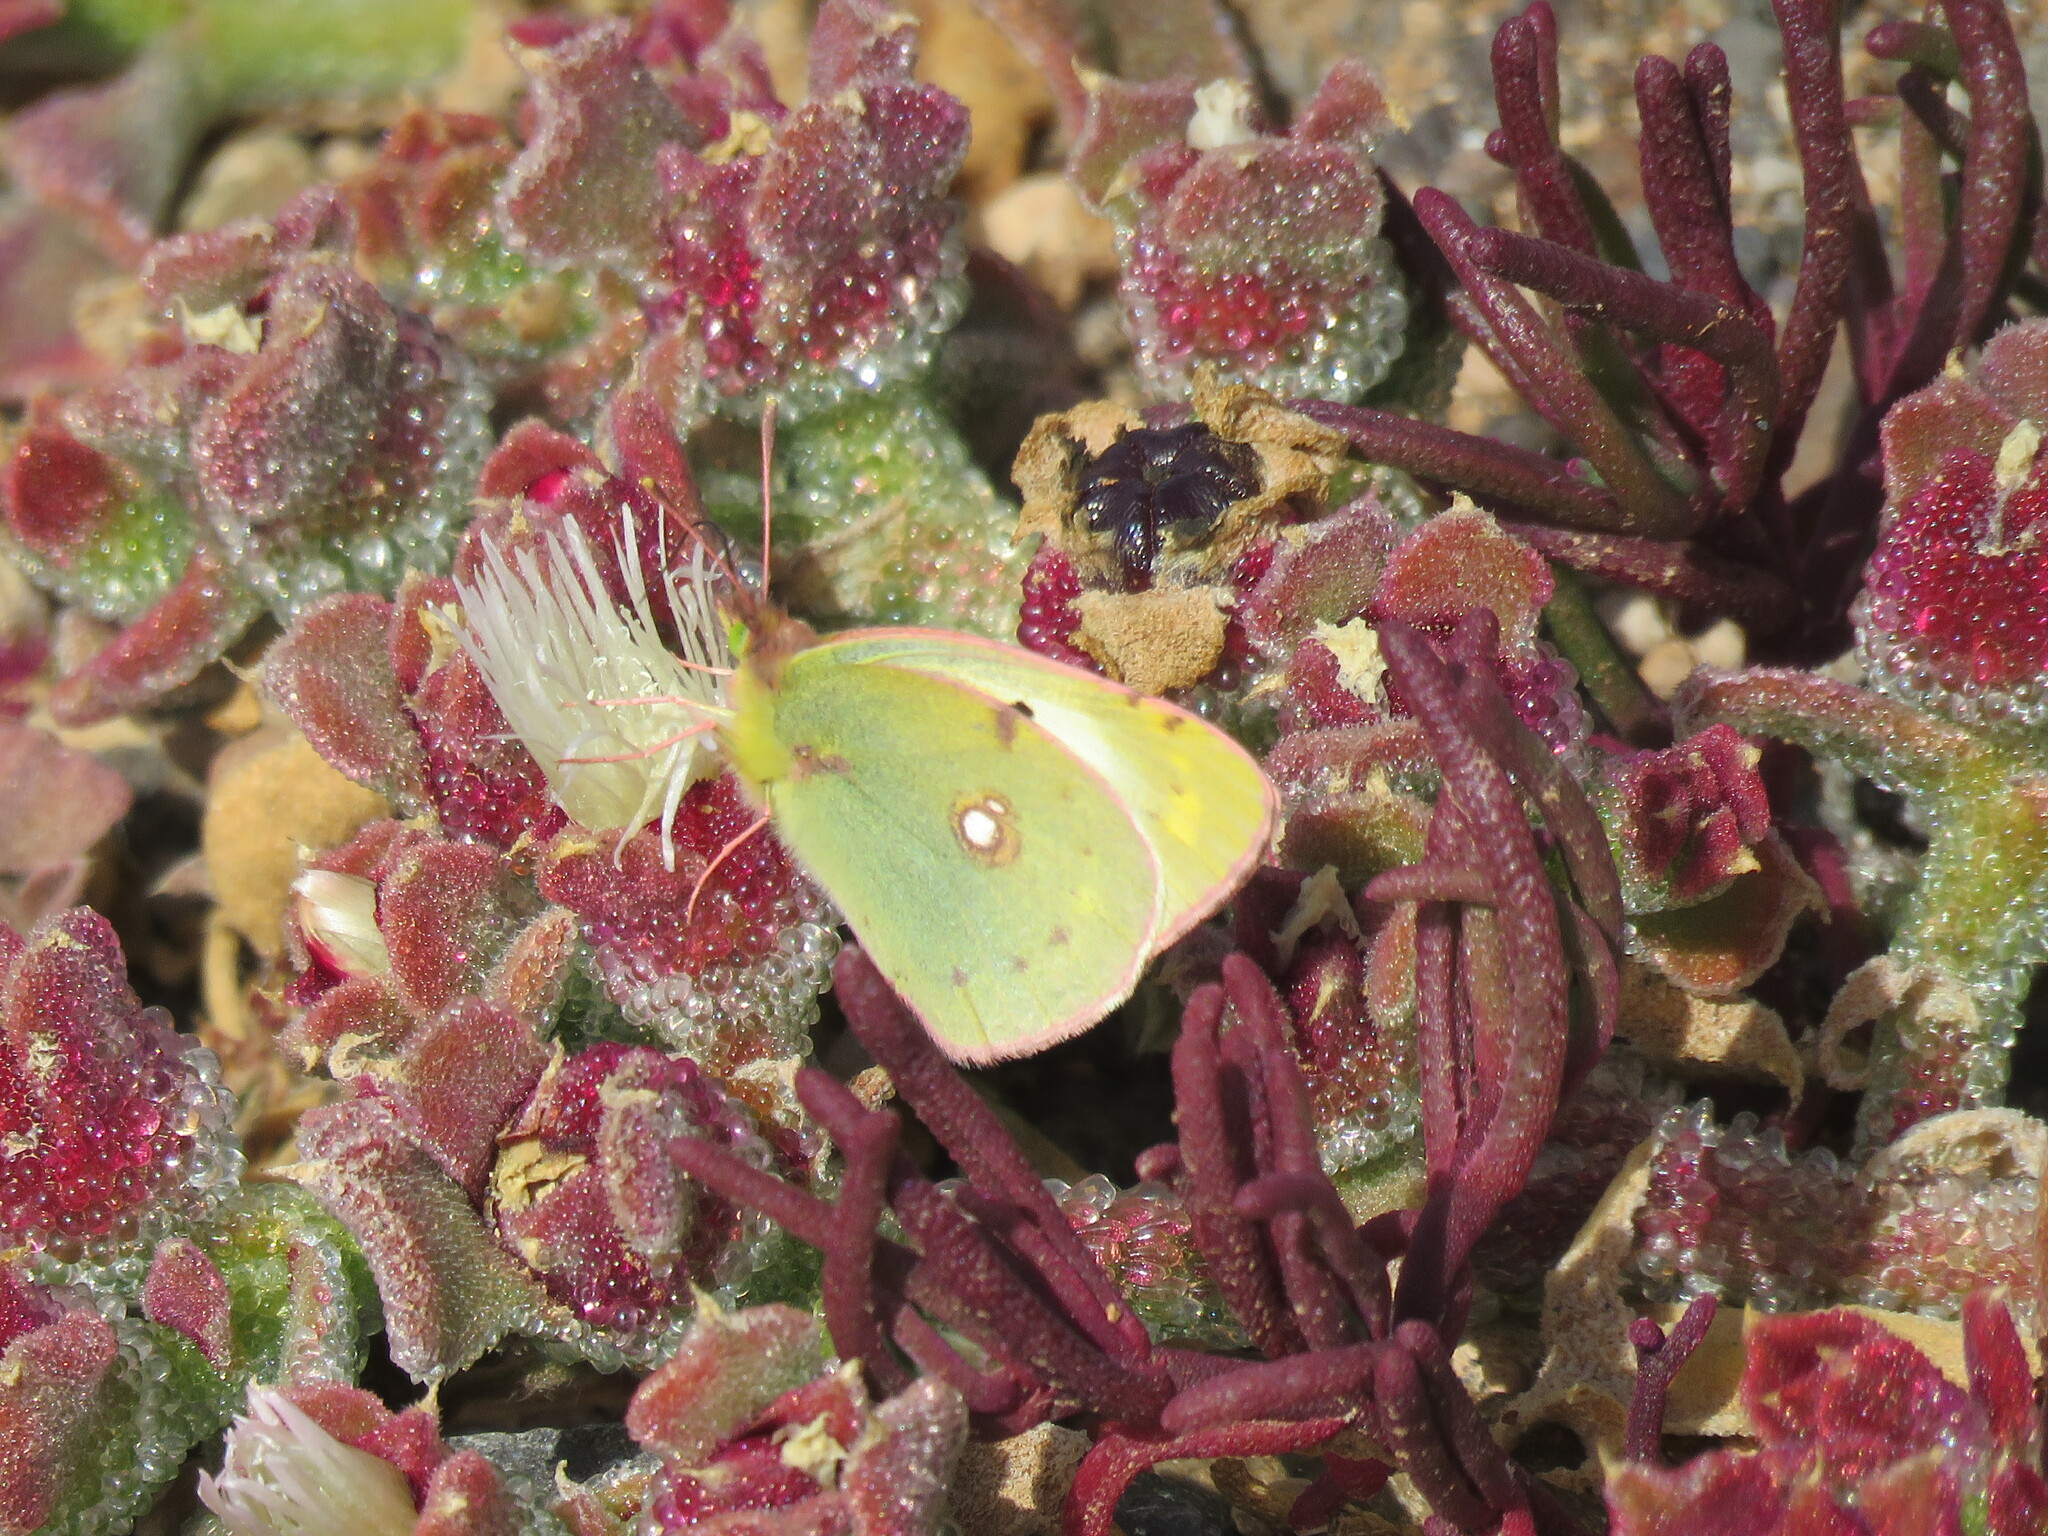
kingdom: Animalia
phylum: Arthropoda
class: Insecta
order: Lepidoptera
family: Pieridae
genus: Colias
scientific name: Colias croceus
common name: Clouded yellow
